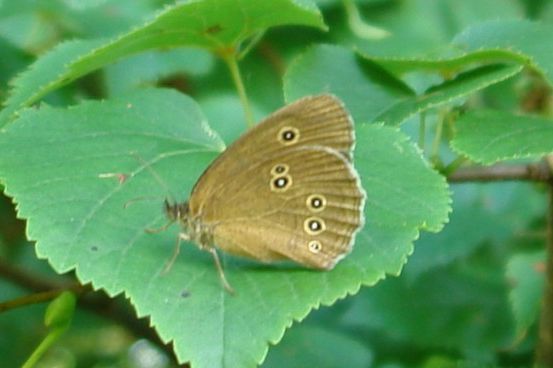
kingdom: Animalia
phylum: Arthropoda
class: Insecta
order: Lepidoptera
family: Nymphalidae
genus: Aphantopus
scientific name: Aphantopus hyperantus
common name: Ringlet
